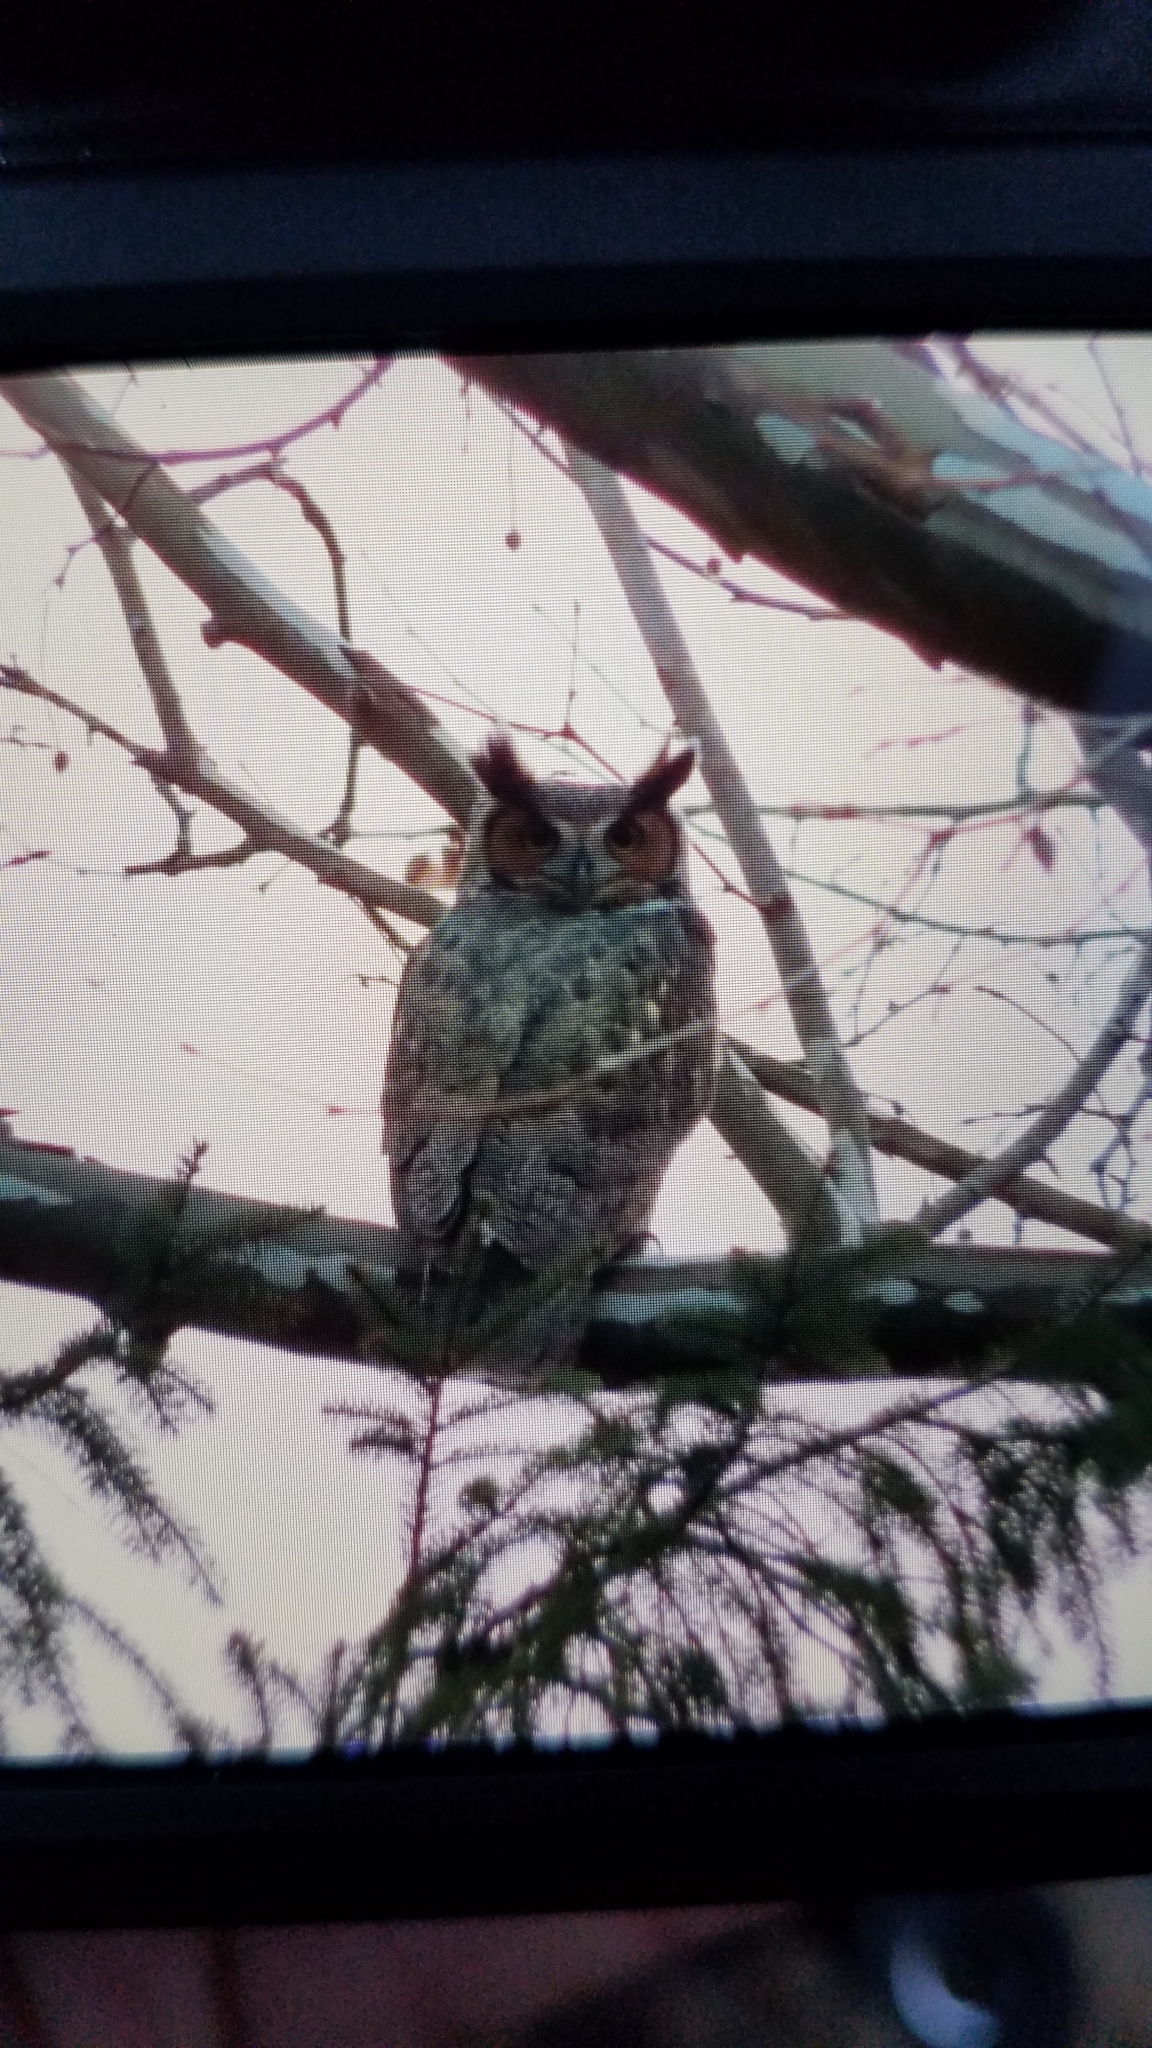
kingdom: Animalia
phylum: Chordata
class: Aves
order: Strigiformes
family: Strigidae
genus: Bubo
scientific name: Bubo virginianus
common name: Great horned owl
